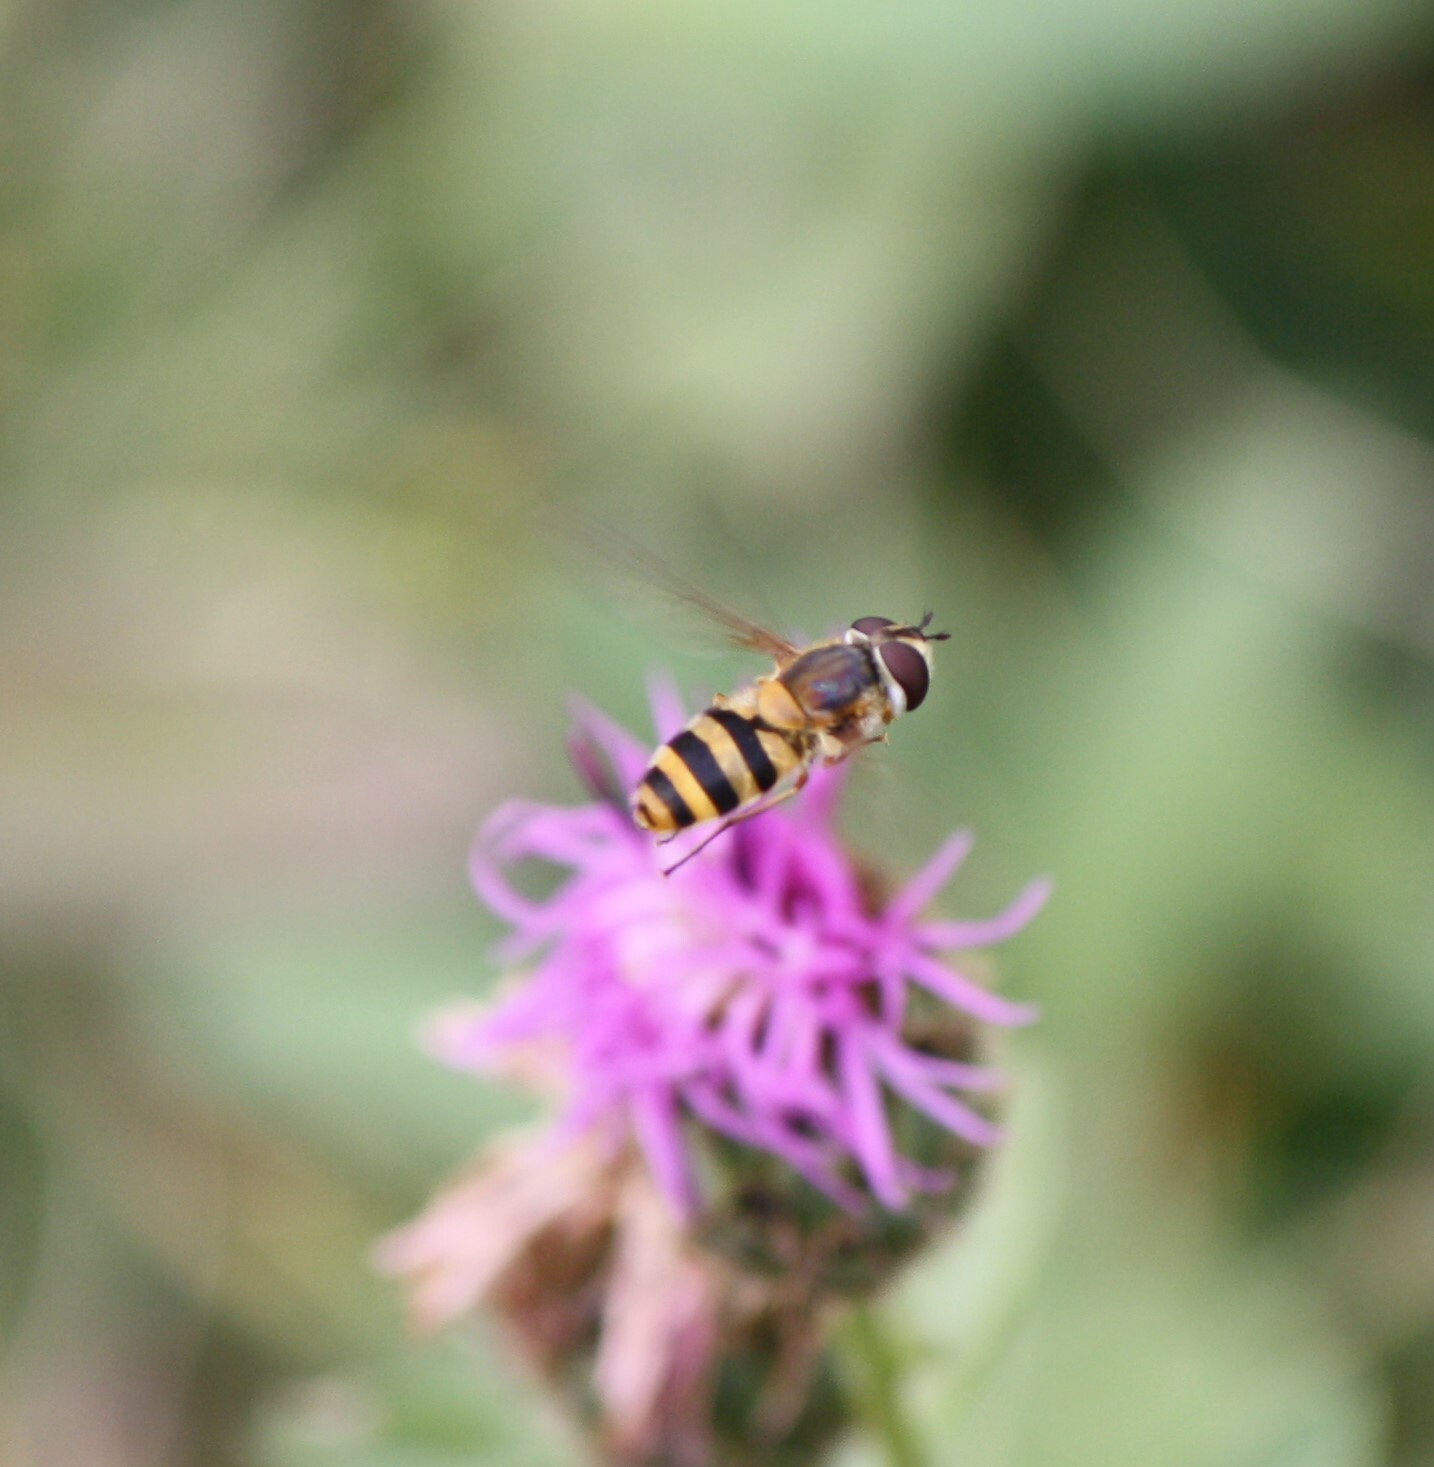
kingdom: Animalia
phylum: Arthropoda
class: Insecta
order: Diptera
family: Syrphidae
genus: Epistrophe
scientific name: Epistrophe grossulariae
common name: Black-horned smoothtail
